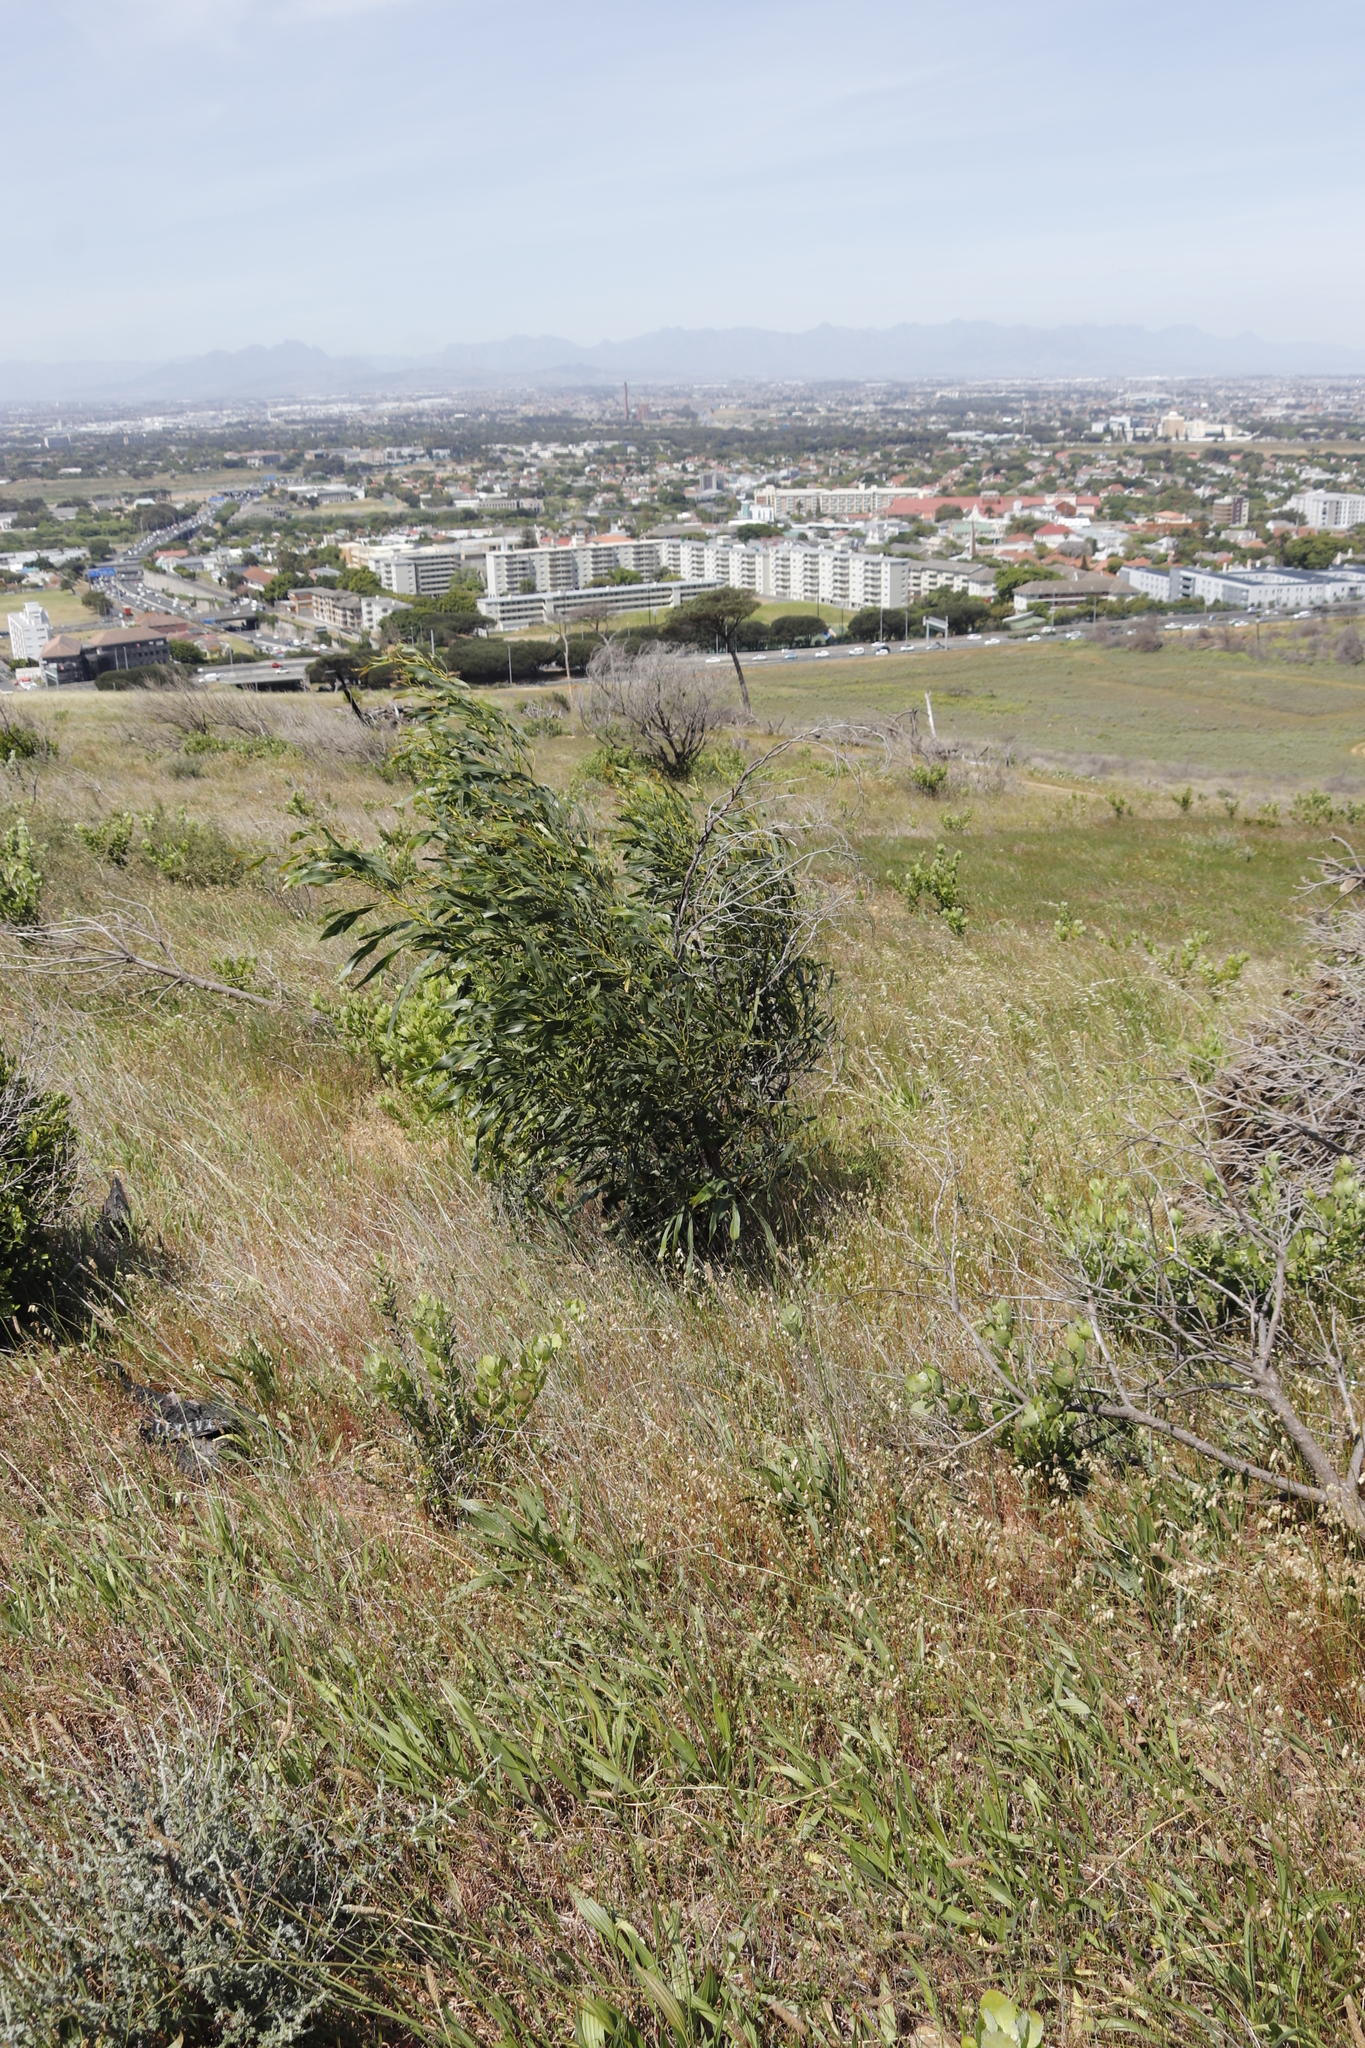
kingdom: Plantae
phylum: Tracheophyta
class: Magnoliopsida
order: Fabales
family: Fabaceae
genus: Acacia
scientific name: Acacia saligna
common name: Orange wattle
